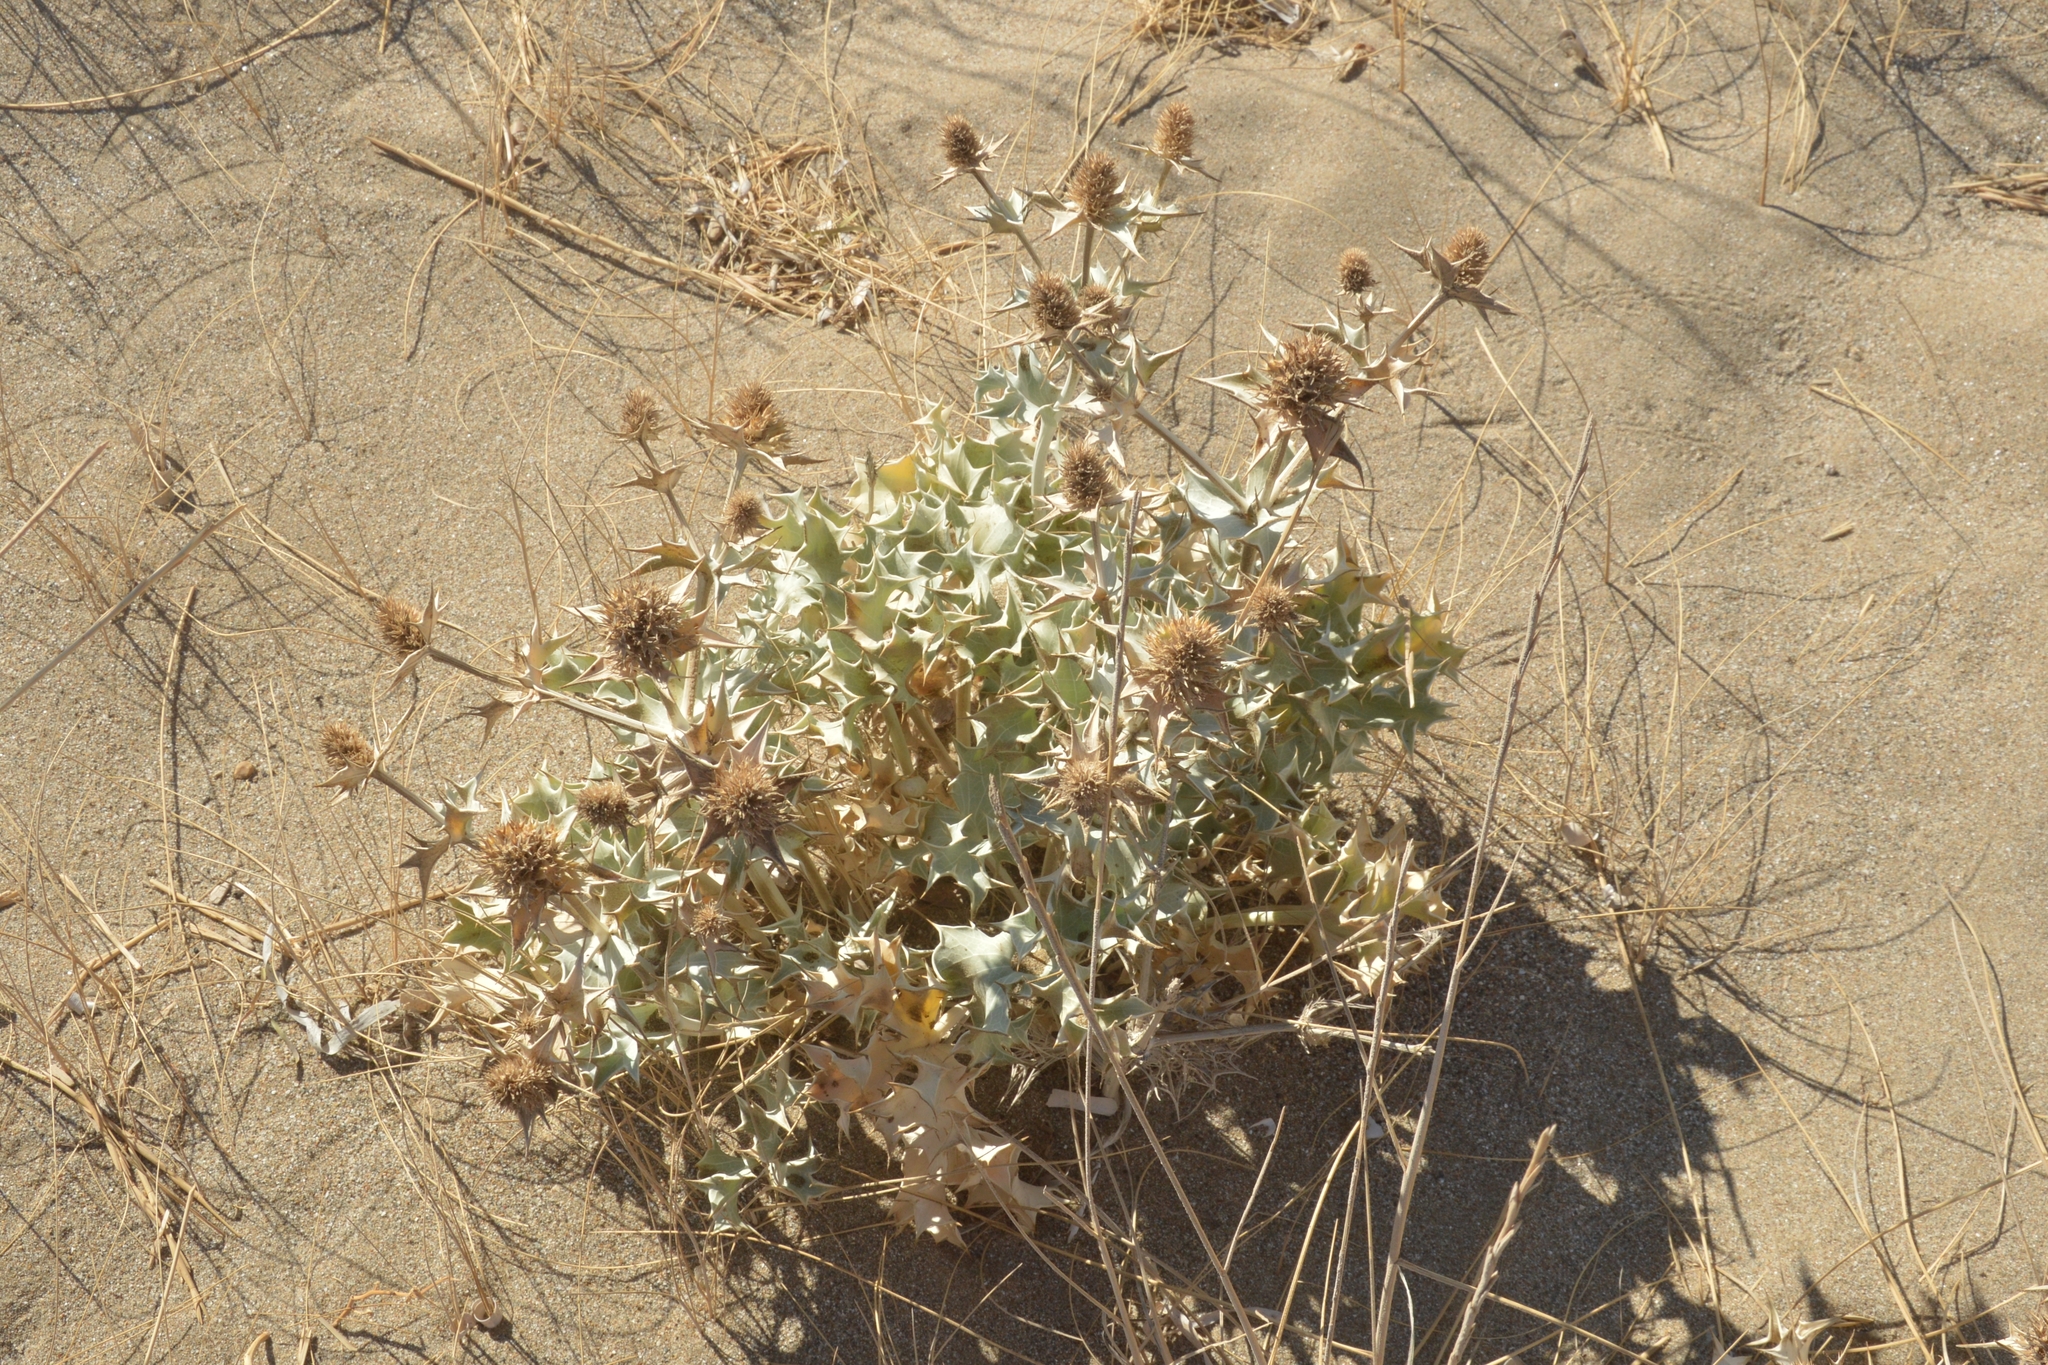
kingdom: Plantae
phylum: Tracheophyta
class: Magnoliopsida
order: Apiales
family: Apiaceae
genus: Eryngium
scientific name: Eryngium maritimum
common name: Sea-holly
